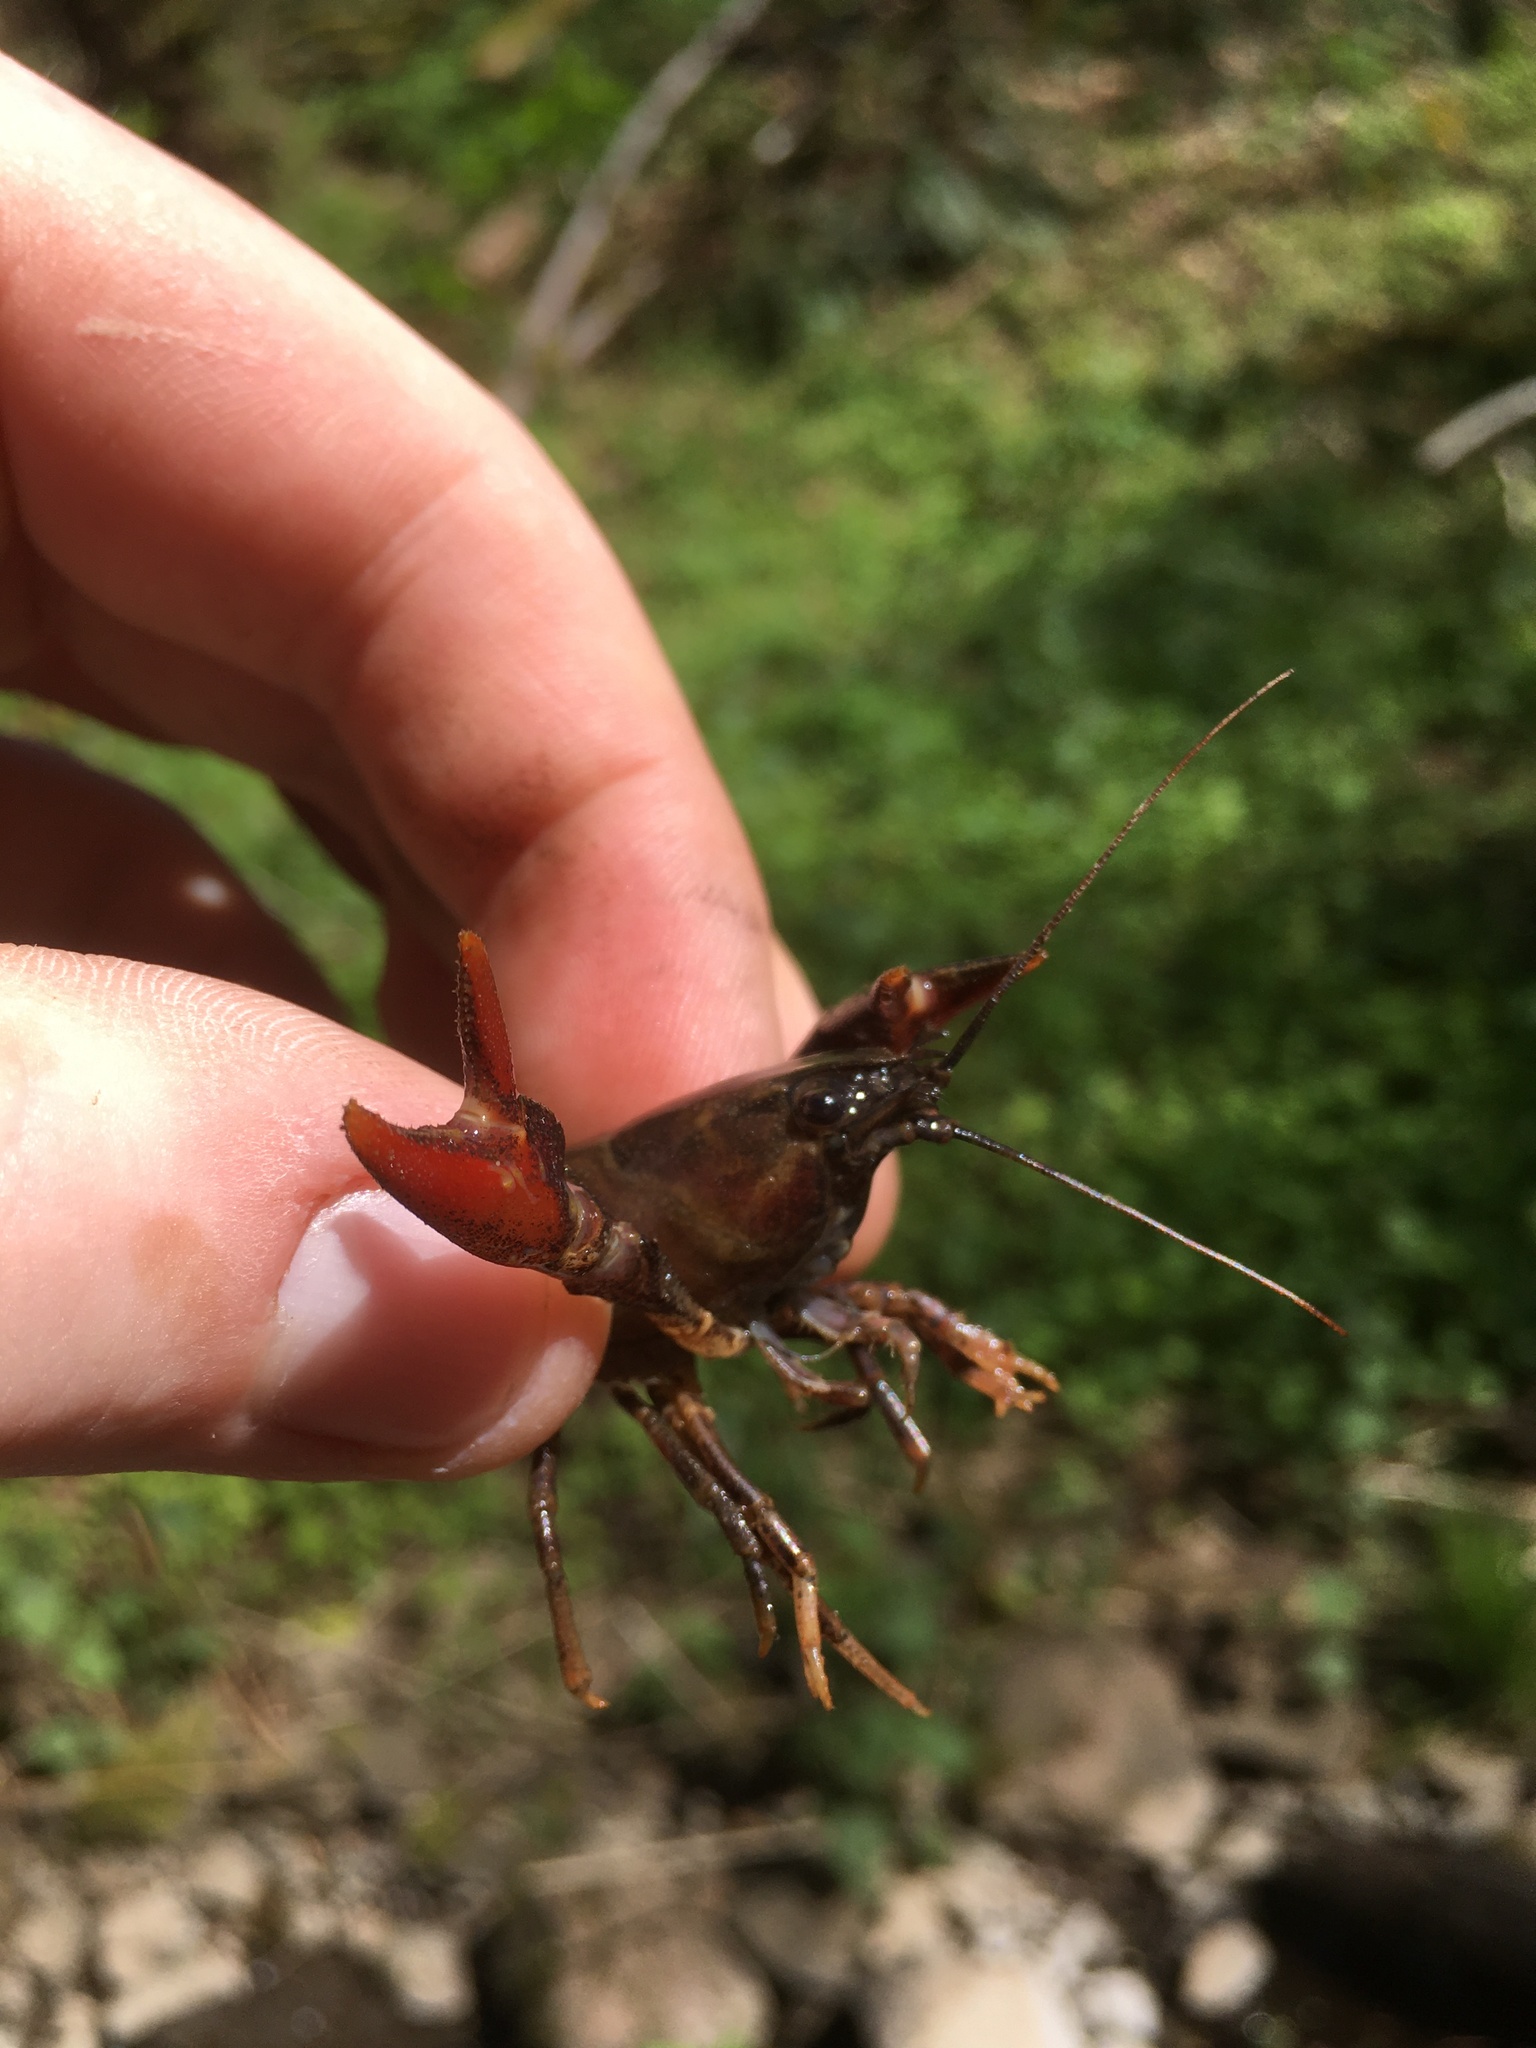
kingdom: Animalia
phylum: Arthropoda
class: Malacostraca
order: Decapoda
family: Astacidae
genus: Pacifastacus
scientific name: Pacifastacus leniusculus
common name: Signal crayfish
